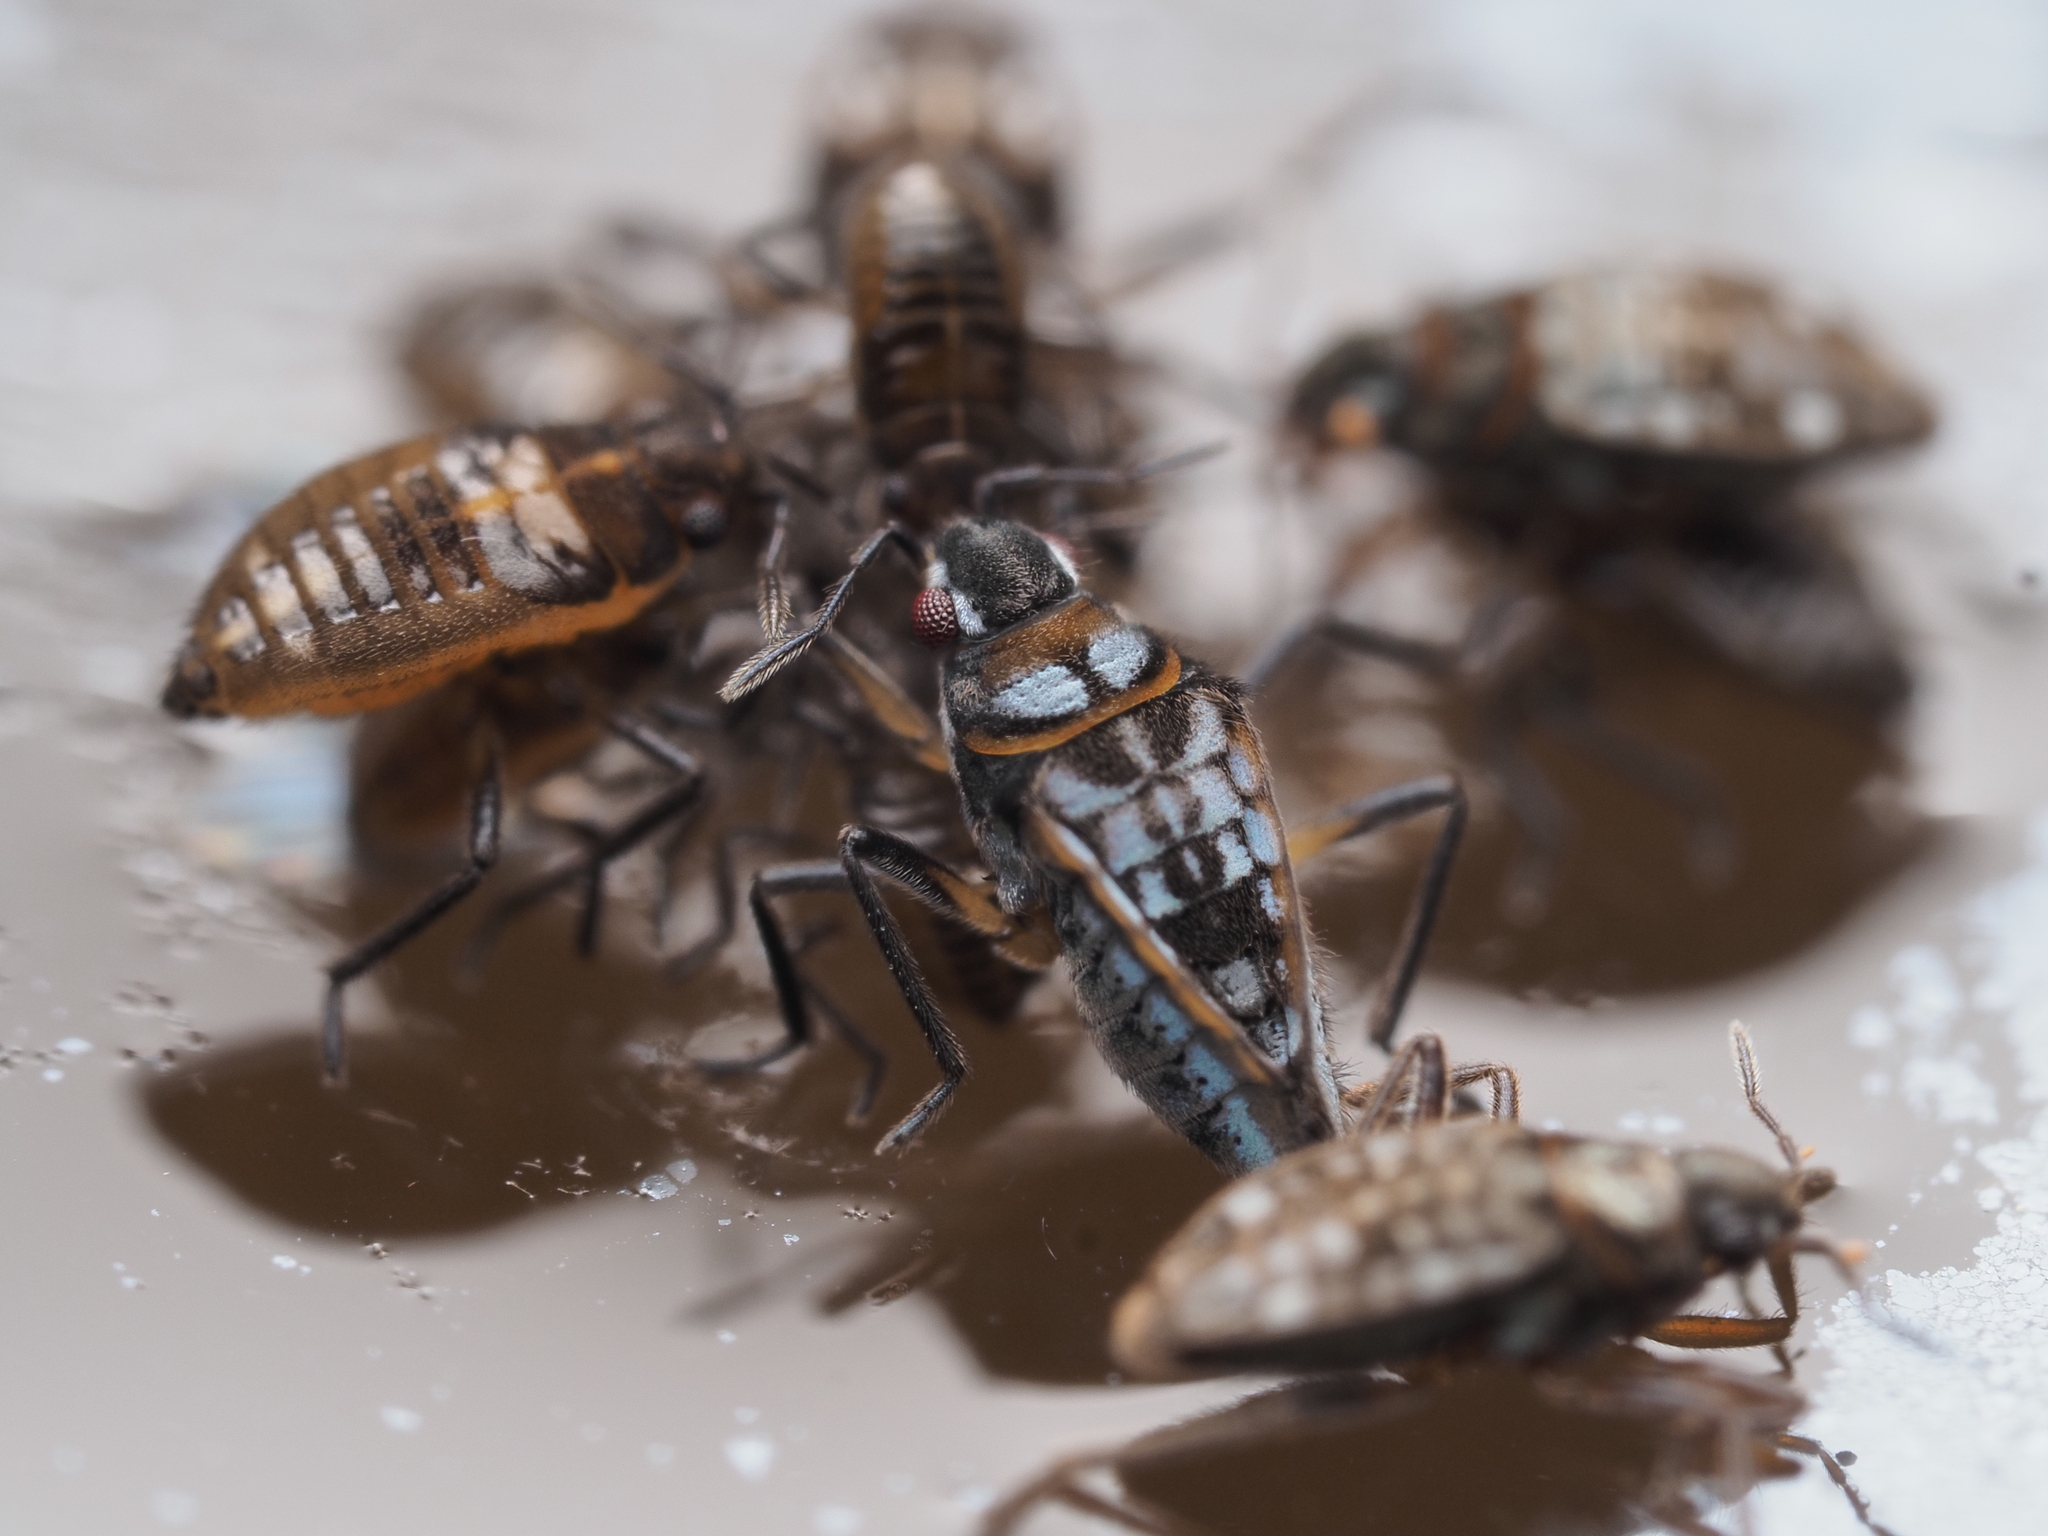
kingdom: Animalia
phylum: Arthropoda
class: Insecta
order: Hemiptera
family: Veliidae
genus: Microvelia
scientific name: Microvelia macgregori
